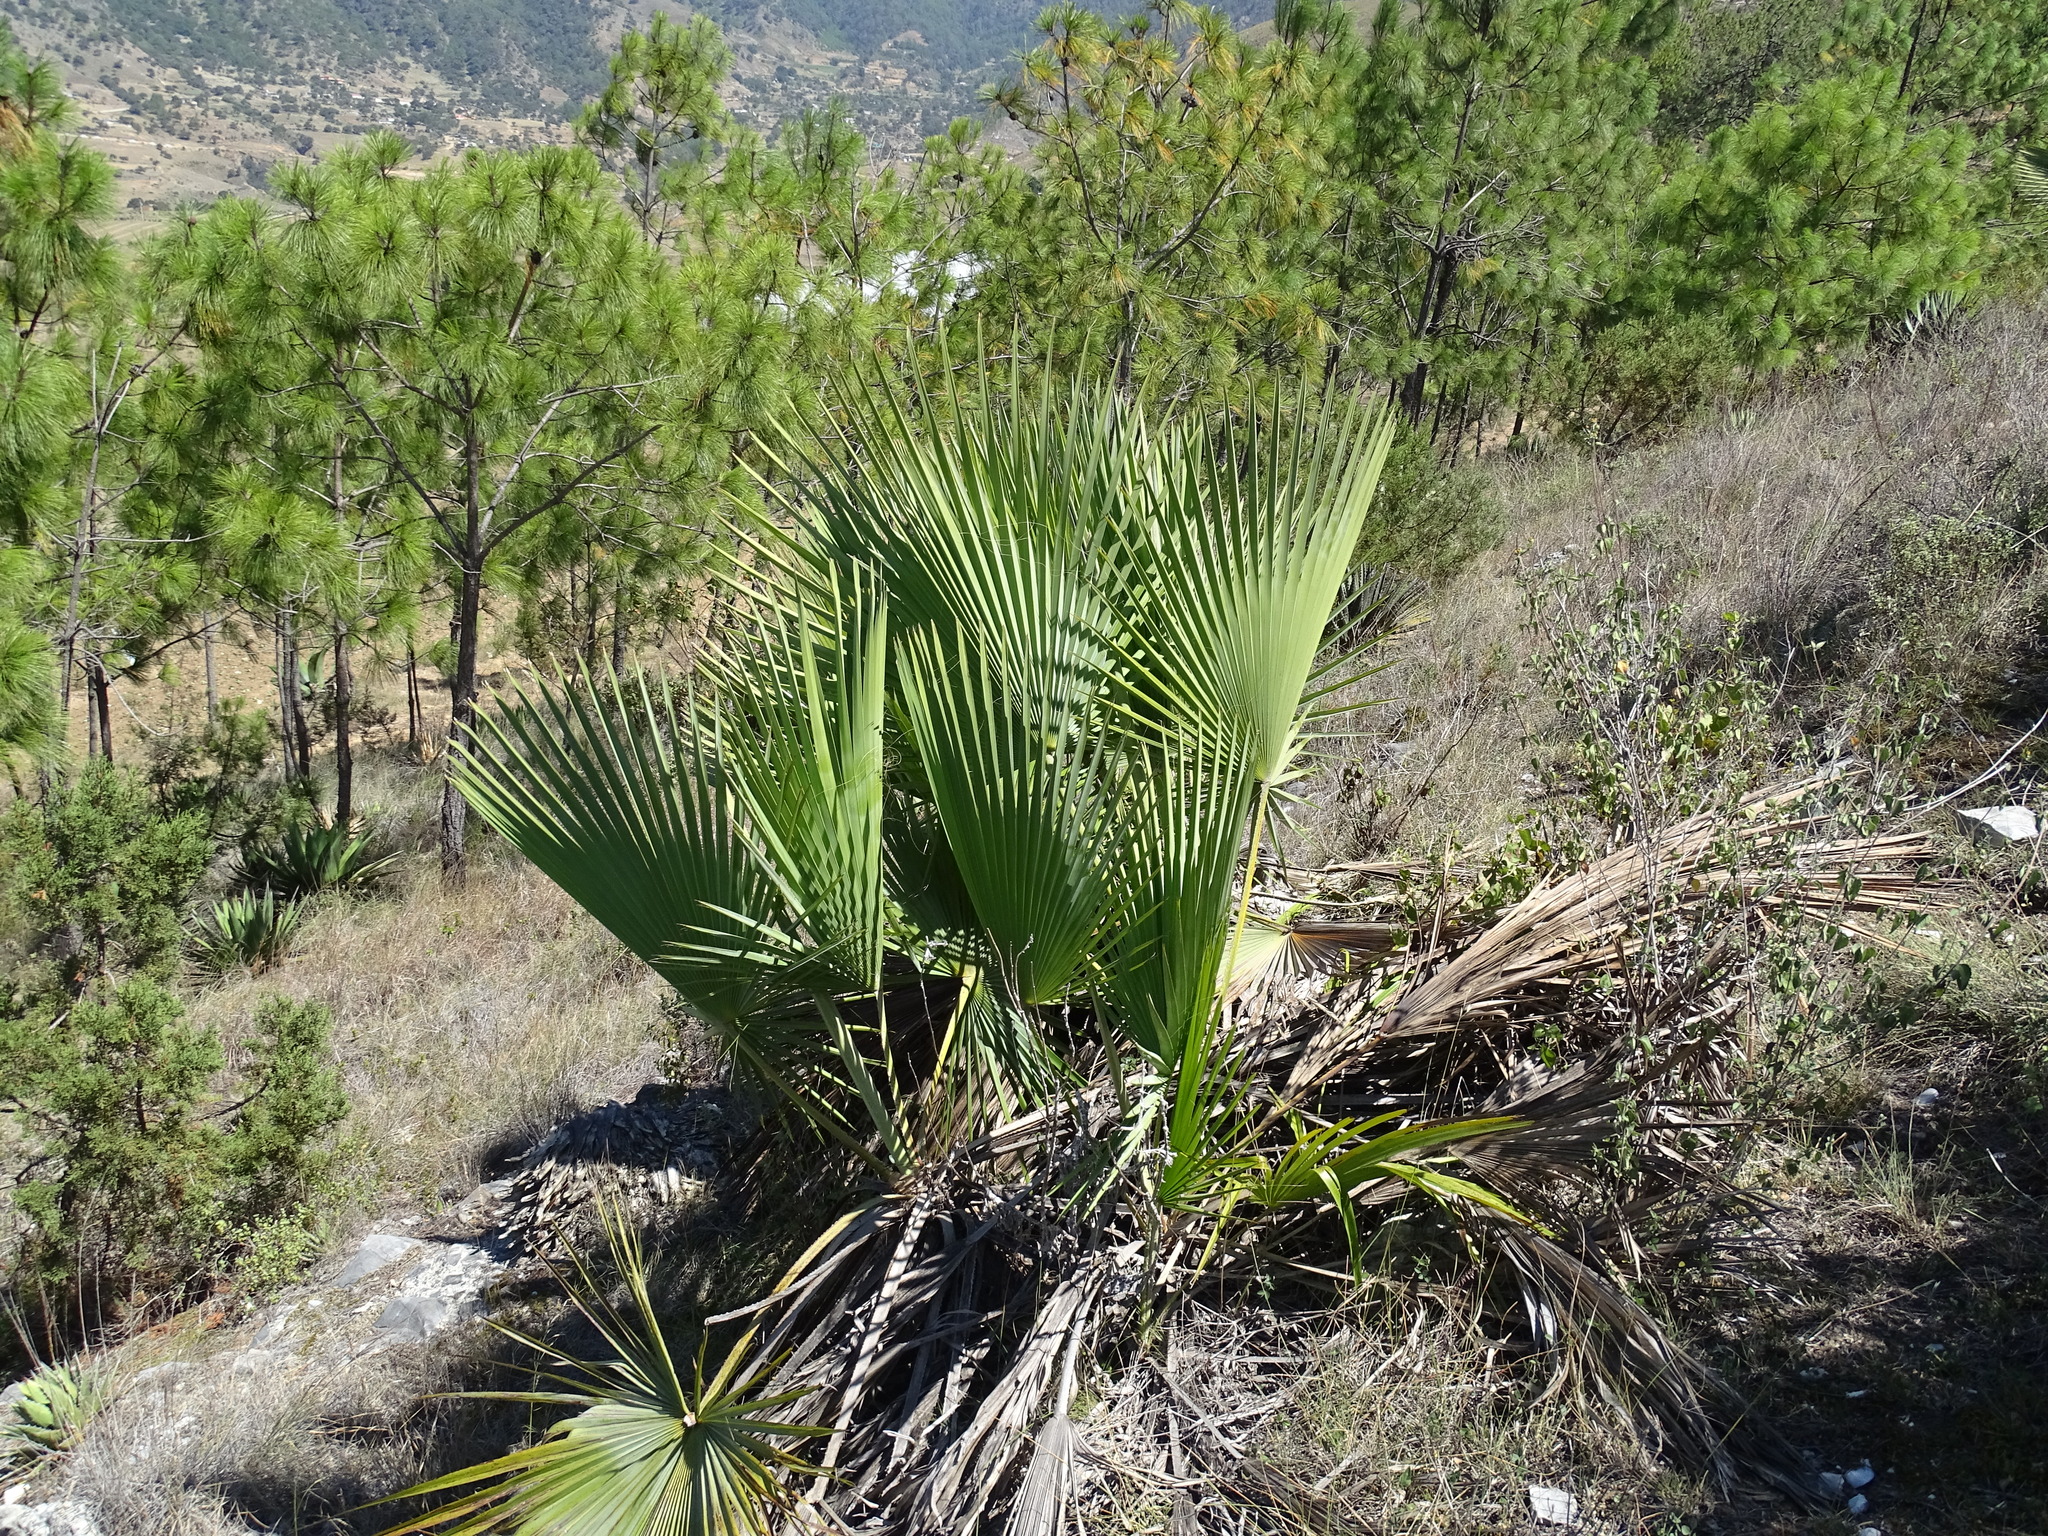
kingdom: Plantae
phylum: Tracheophyta
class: Liliopsida
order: Arecales
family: Arecaceae
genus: Brahea
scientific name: Brahea dulcis
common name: Apak palm
